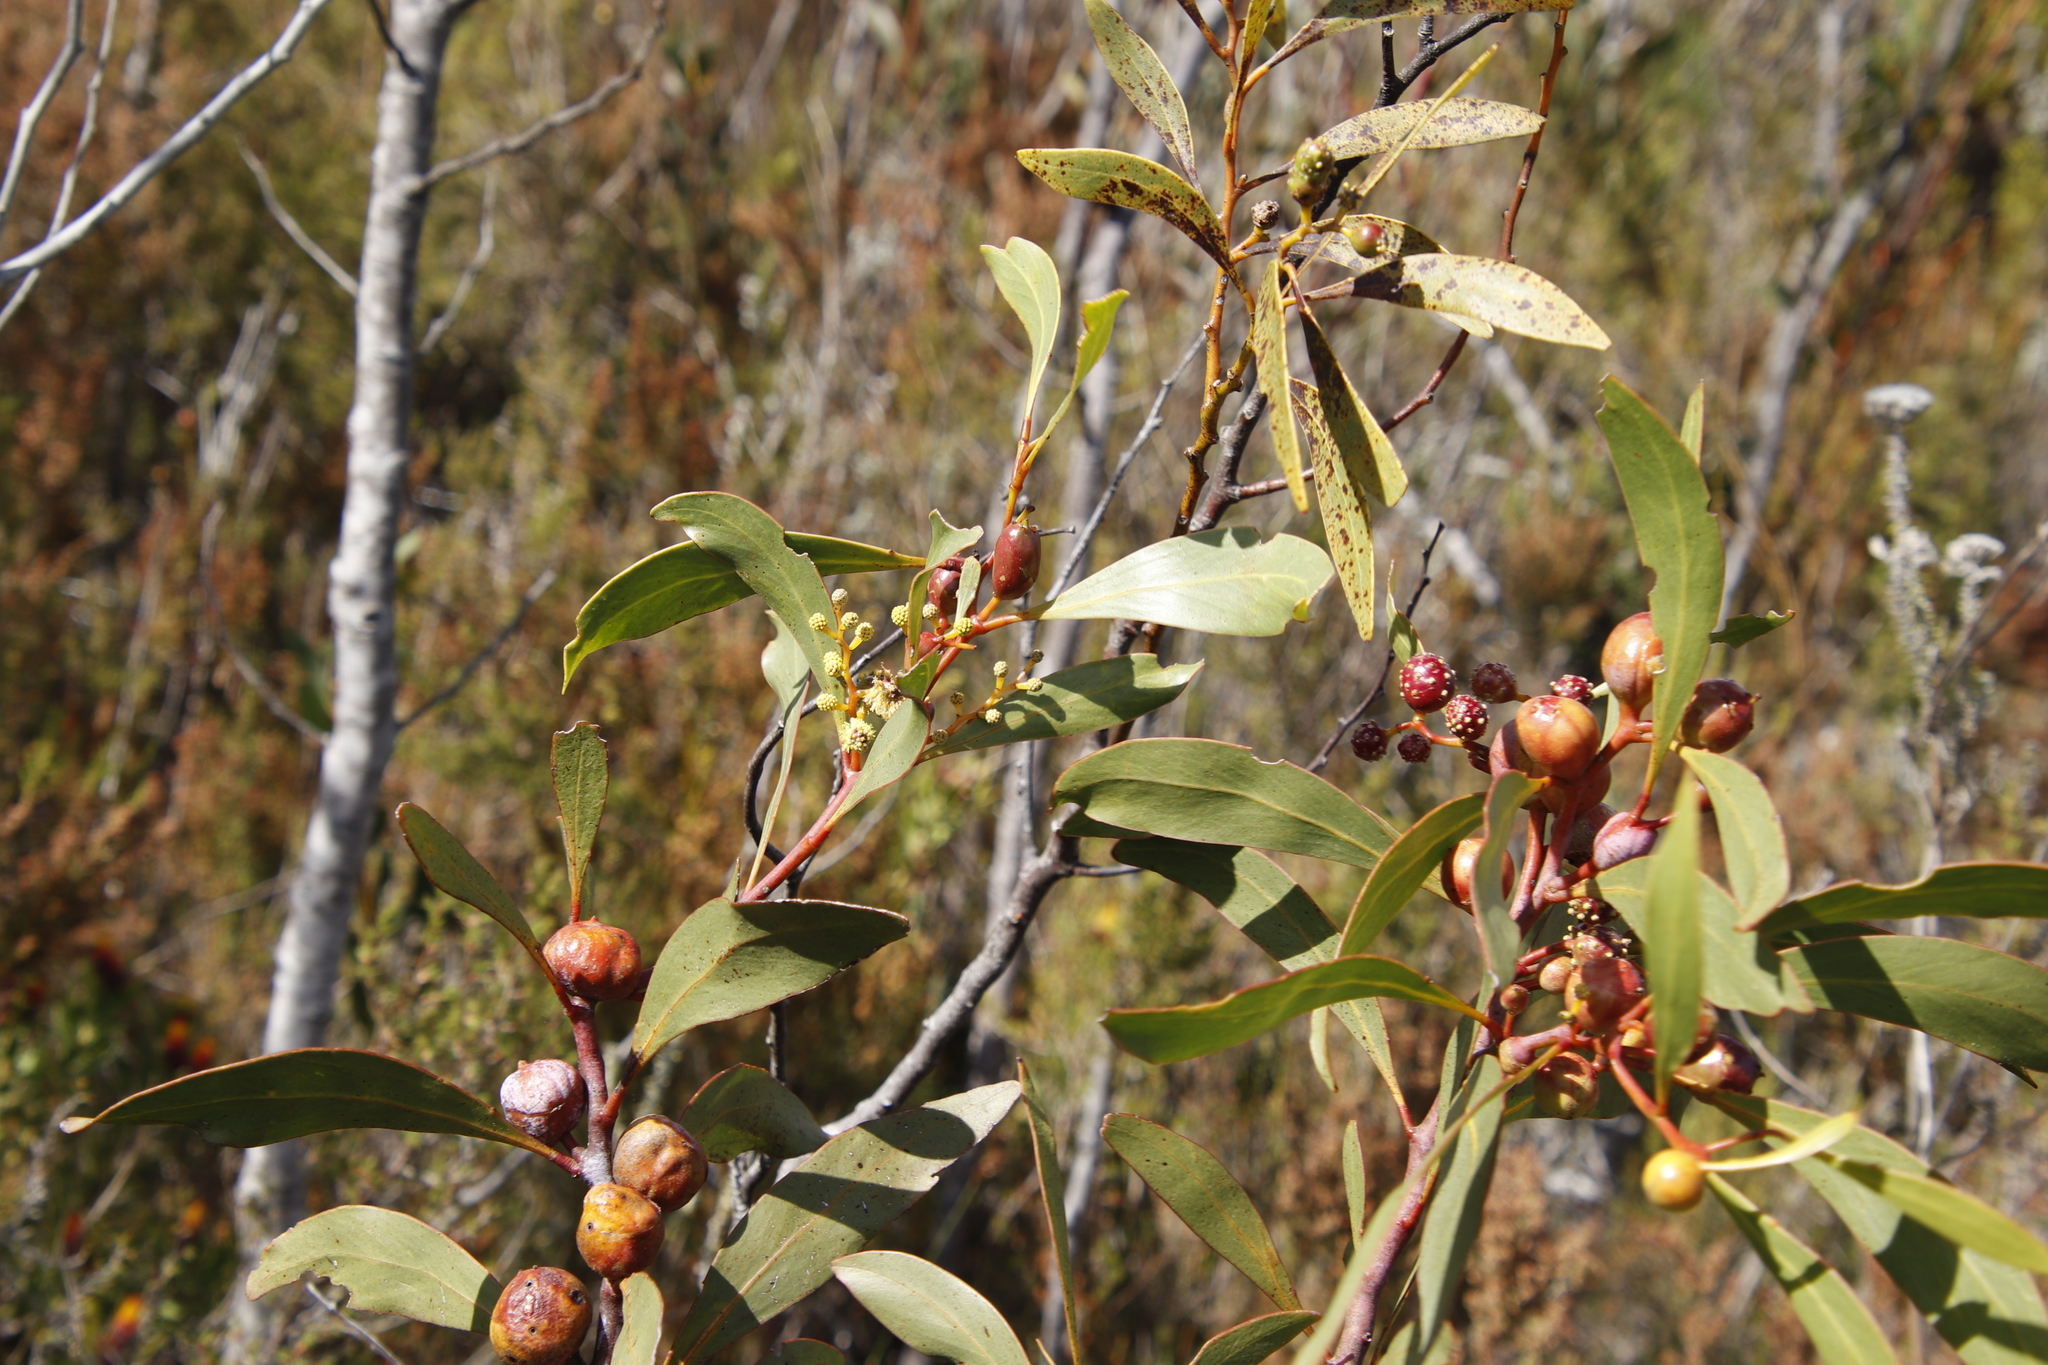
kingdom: Animalia
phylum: Arthropoda
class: Insecta
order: Hymenoptera
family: Pteromalidae
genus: Trichilogaster
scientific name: Trichilogaster signiventris
